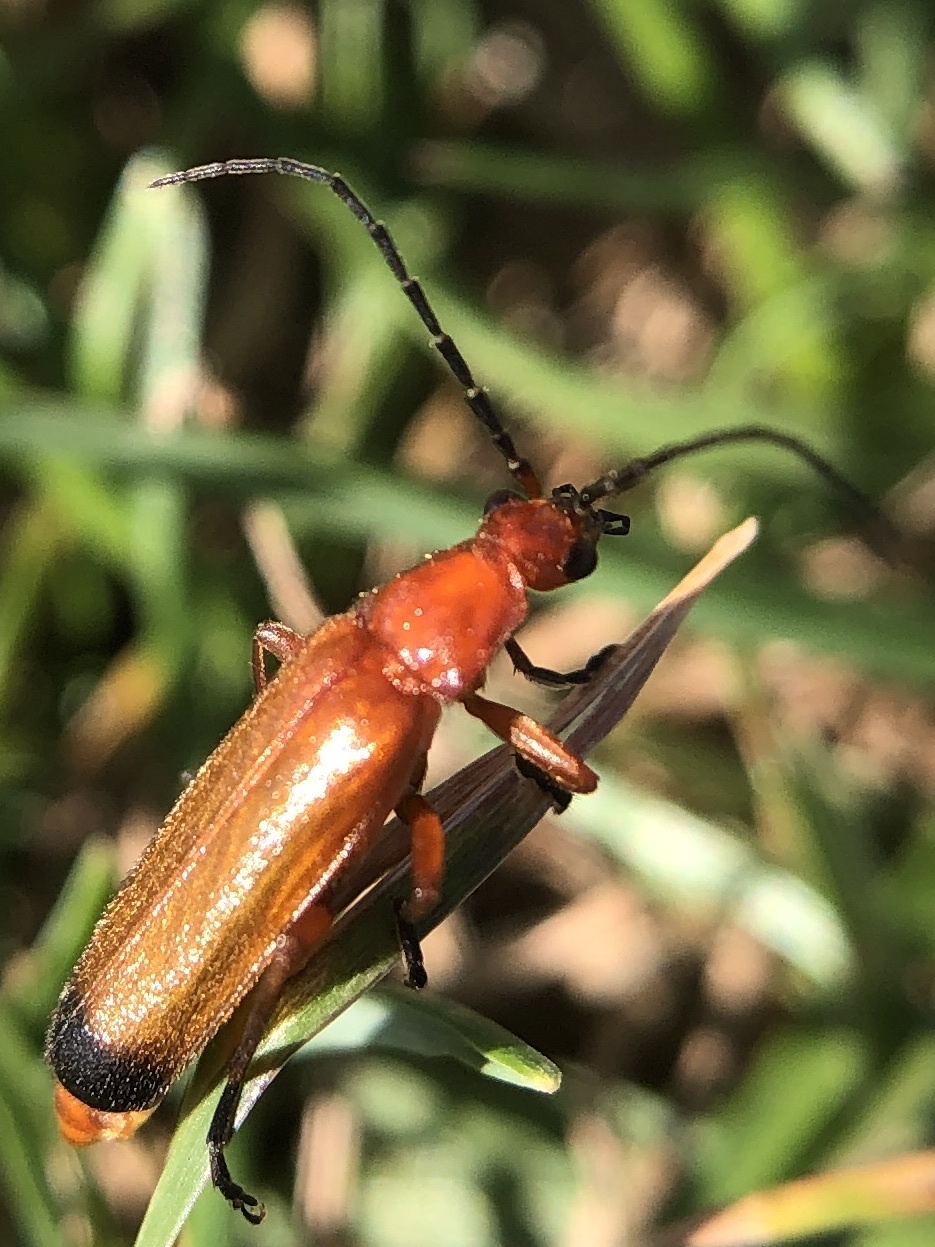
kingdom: Animalia
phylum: Arthropoda
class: Insecta
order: Coleoptera
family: Cantharidae
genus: Rhagonycha
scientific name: Rhagonycha fulva
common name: Common red soldier beetle
